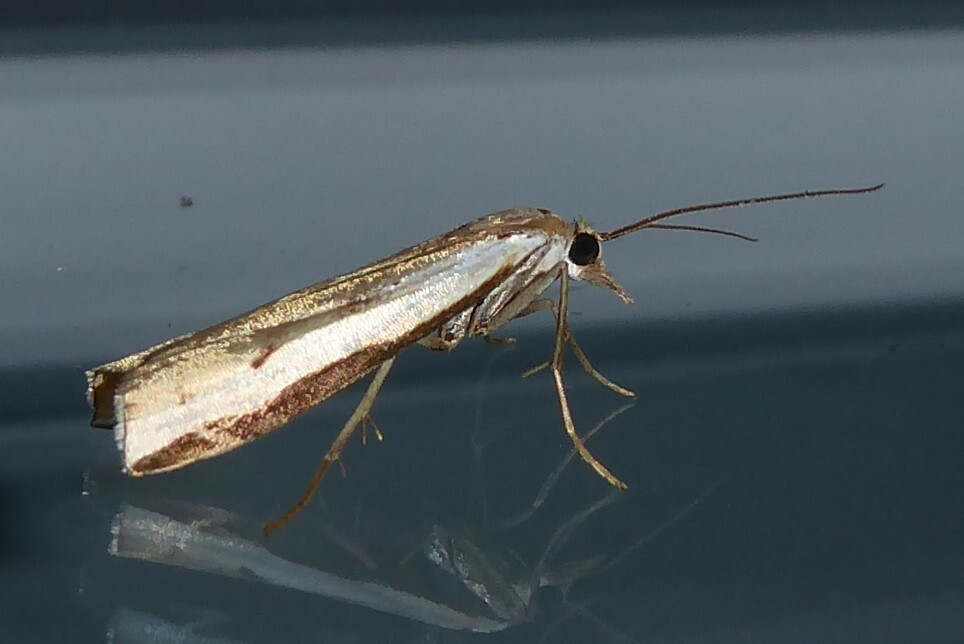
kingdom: Animalia
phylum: Arthropoda
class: Insecta
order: Lepidoptera
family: Crambidae
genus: Orocrambus
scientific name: Orocrambus flexuosellus
